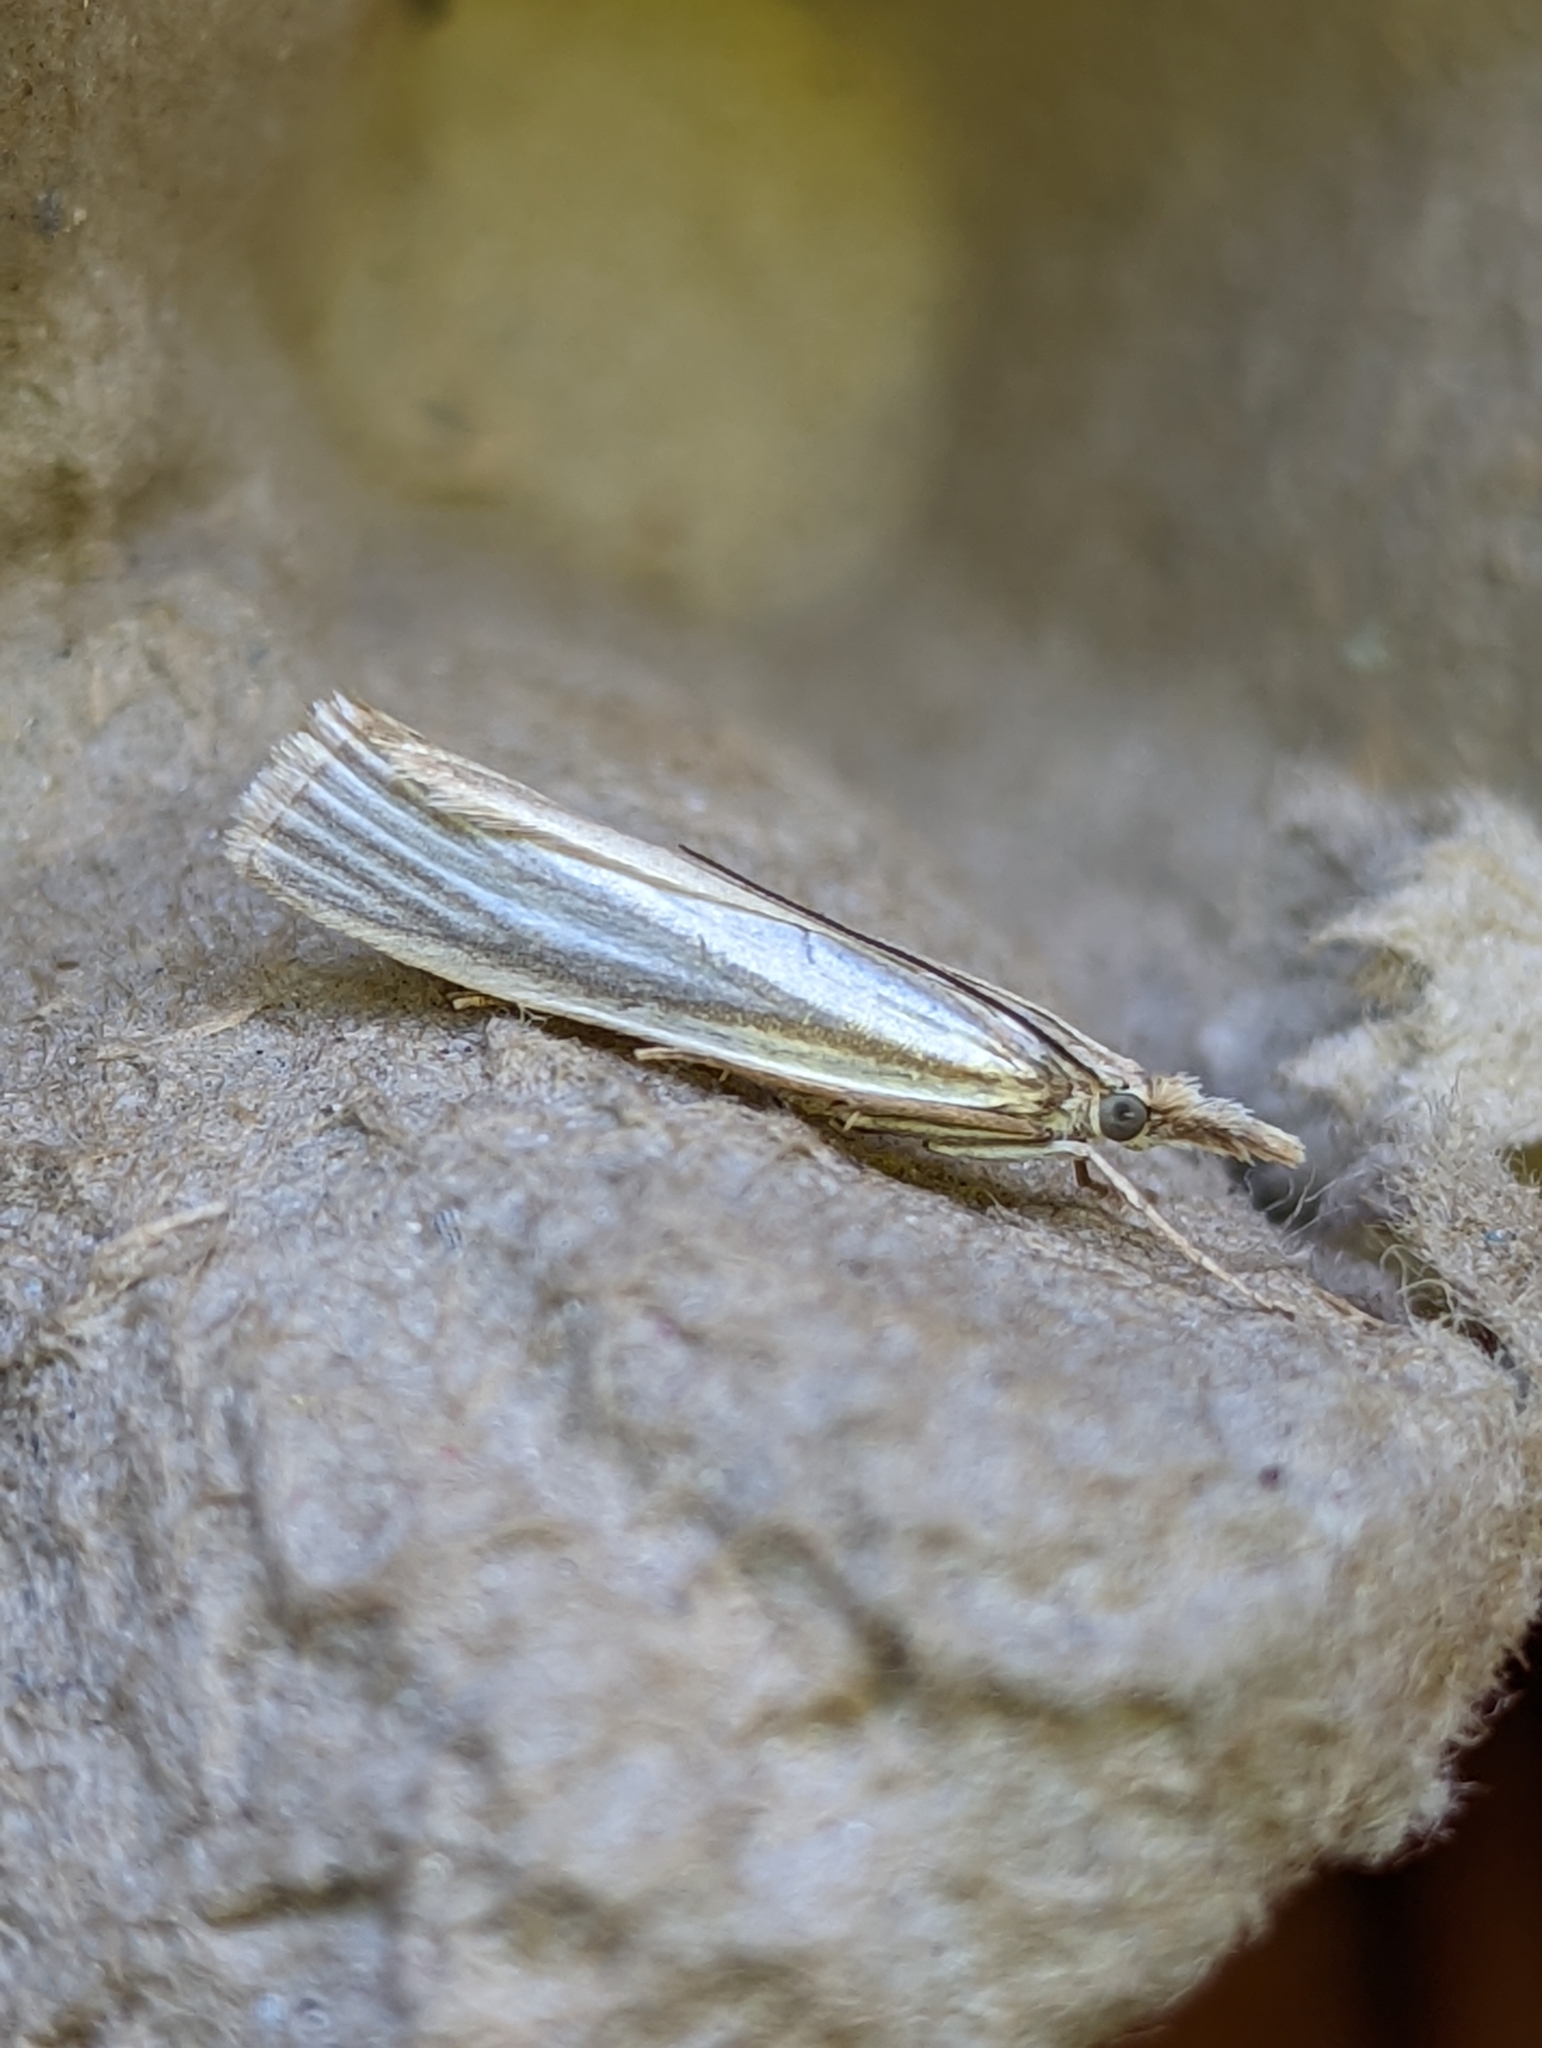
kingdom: Animalia
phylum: Arthropoda
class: Insecta
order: Lepidoptera
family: Crambidae
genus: Crambus
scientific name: Crambus perlellus
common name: Yellow satin veneer
